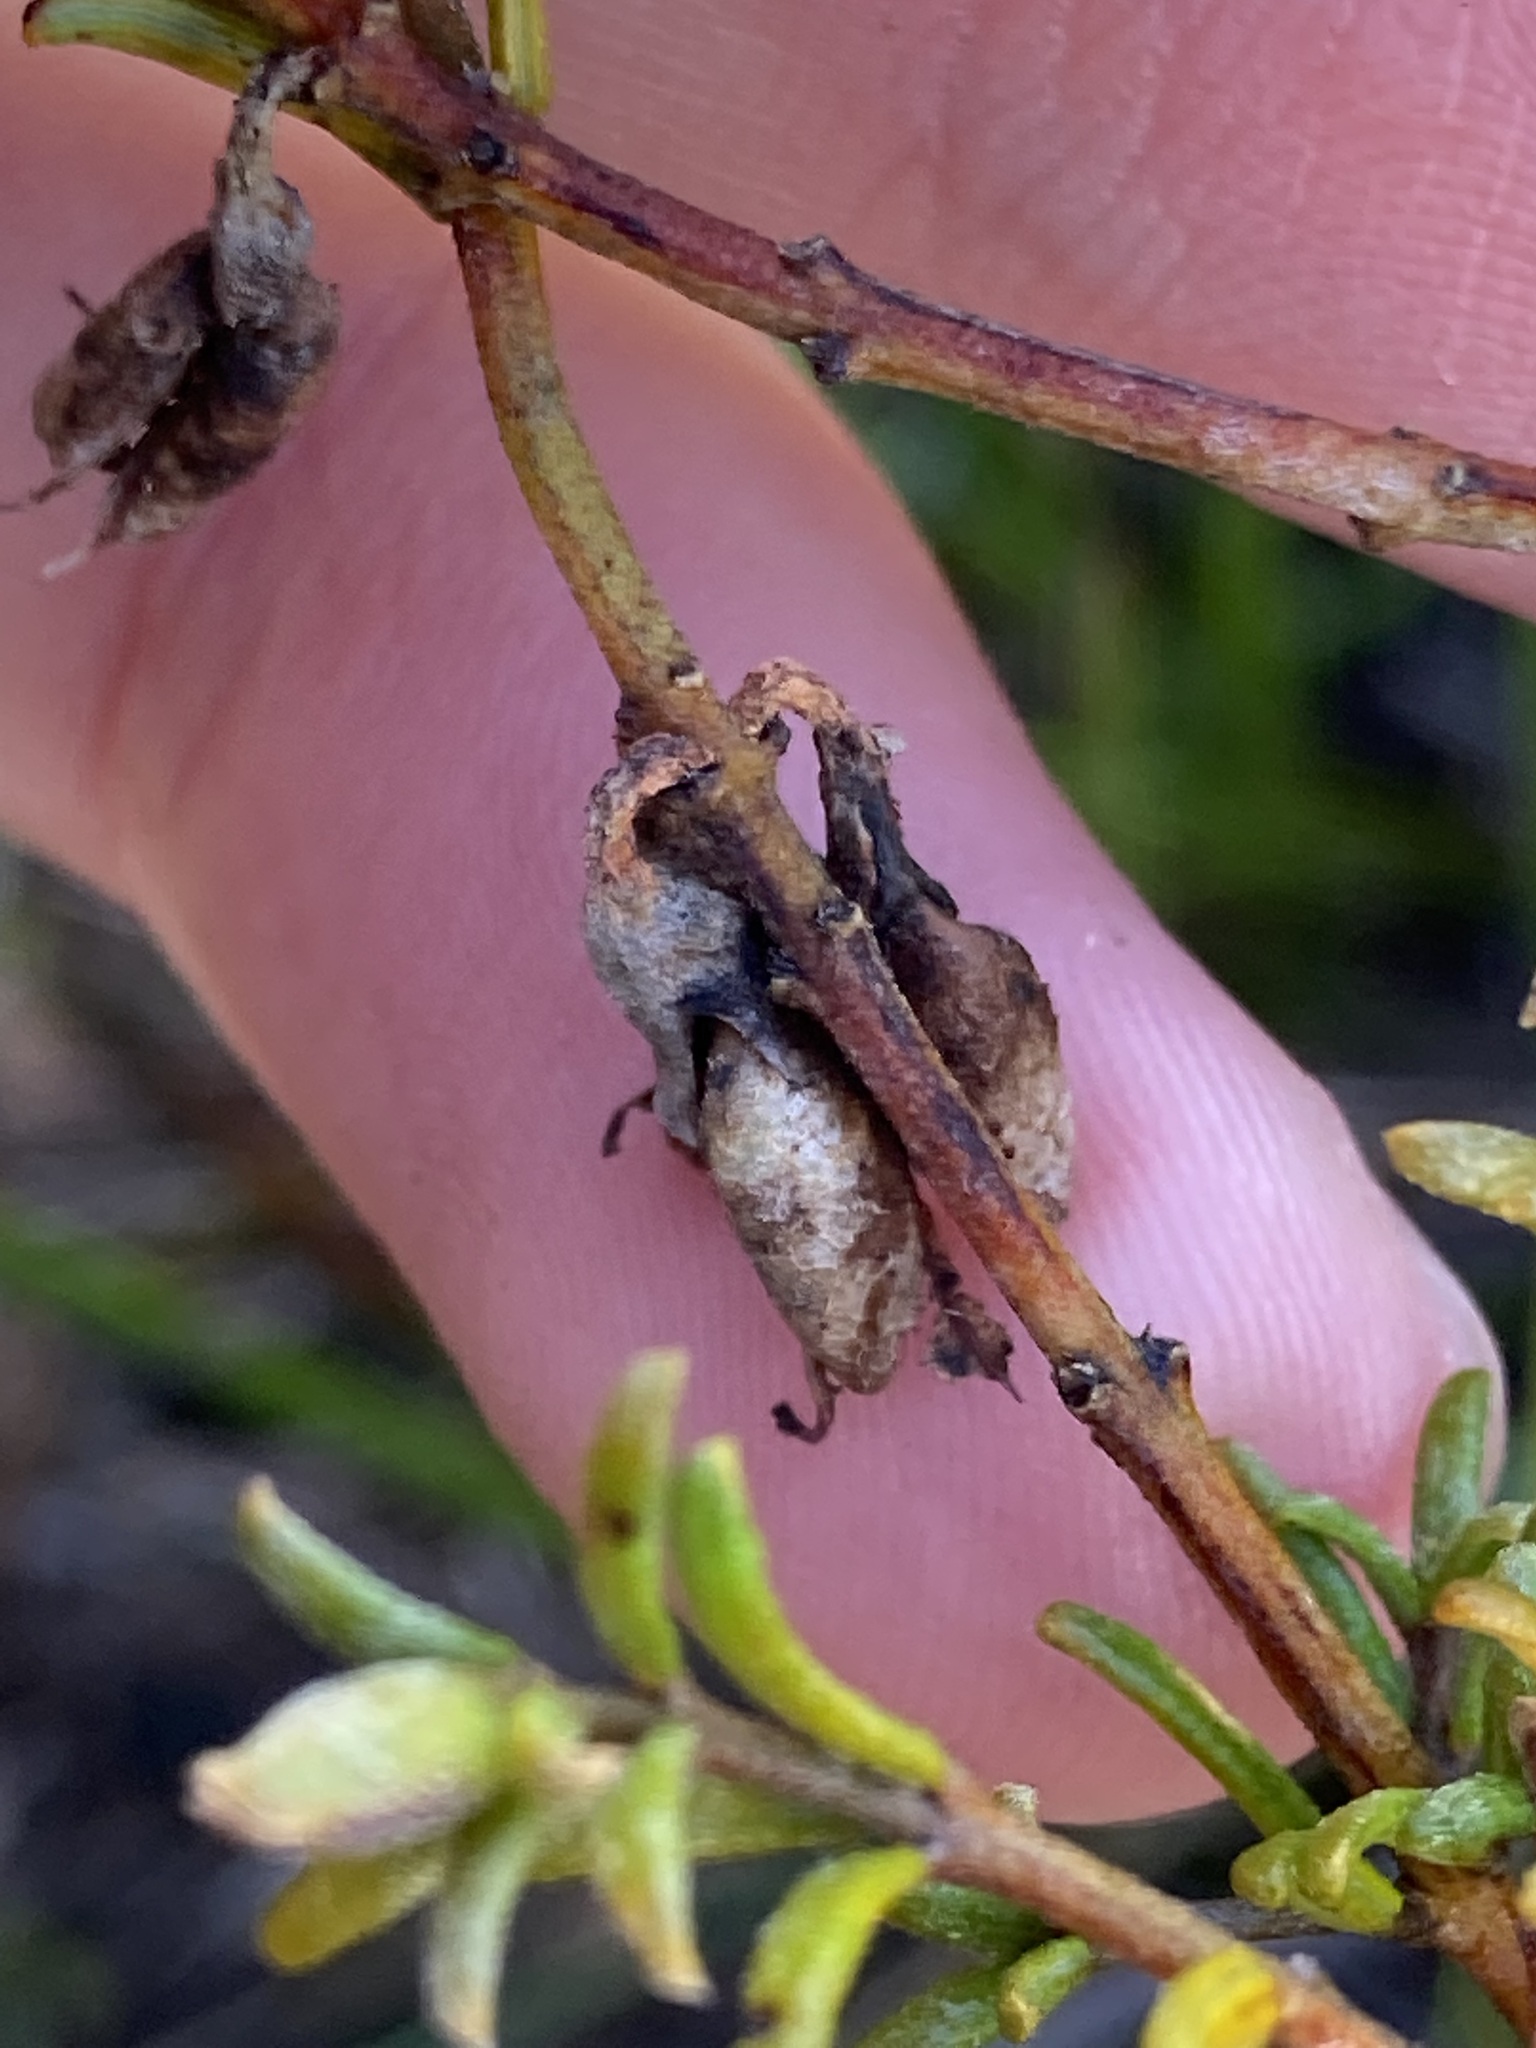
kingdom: Plantae
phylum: Tracheophyta
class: Magnoliopsida
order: Fabales
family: Fabaceae
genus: Mirbelia
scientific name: Mirbelia floribunda
